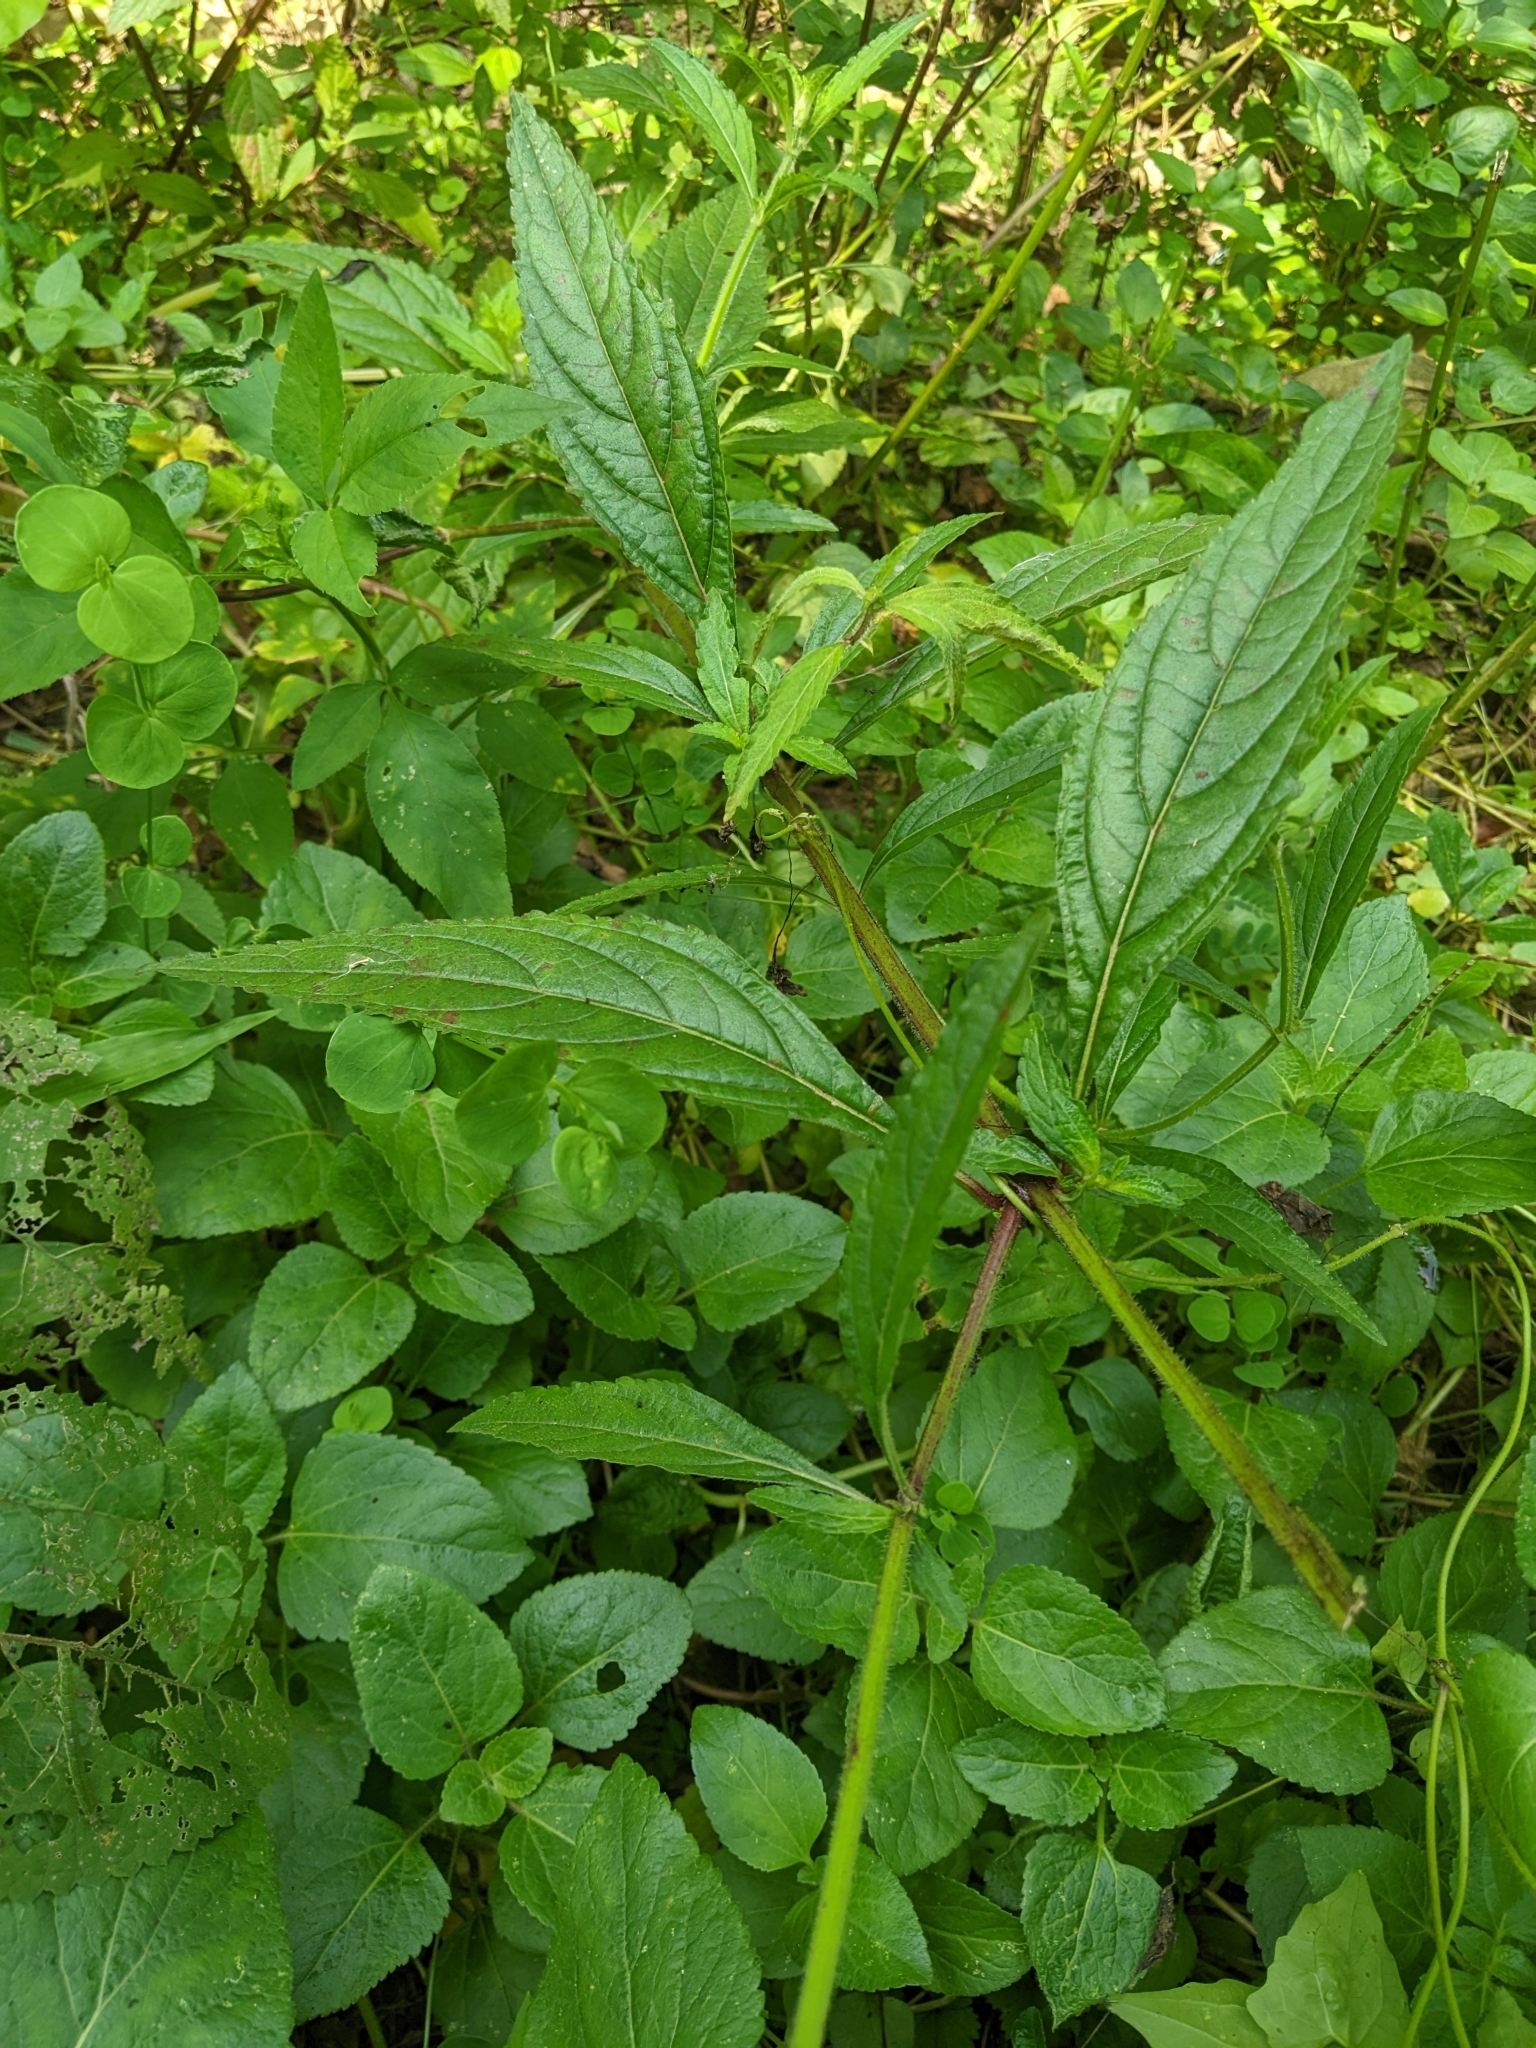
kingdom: Plantae
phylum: Tracheophyta
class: Magnoliopsida
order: Lamiales
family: Lamiaceae
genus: Hyptis
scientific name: Hyptis capitata
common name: False ironwort
